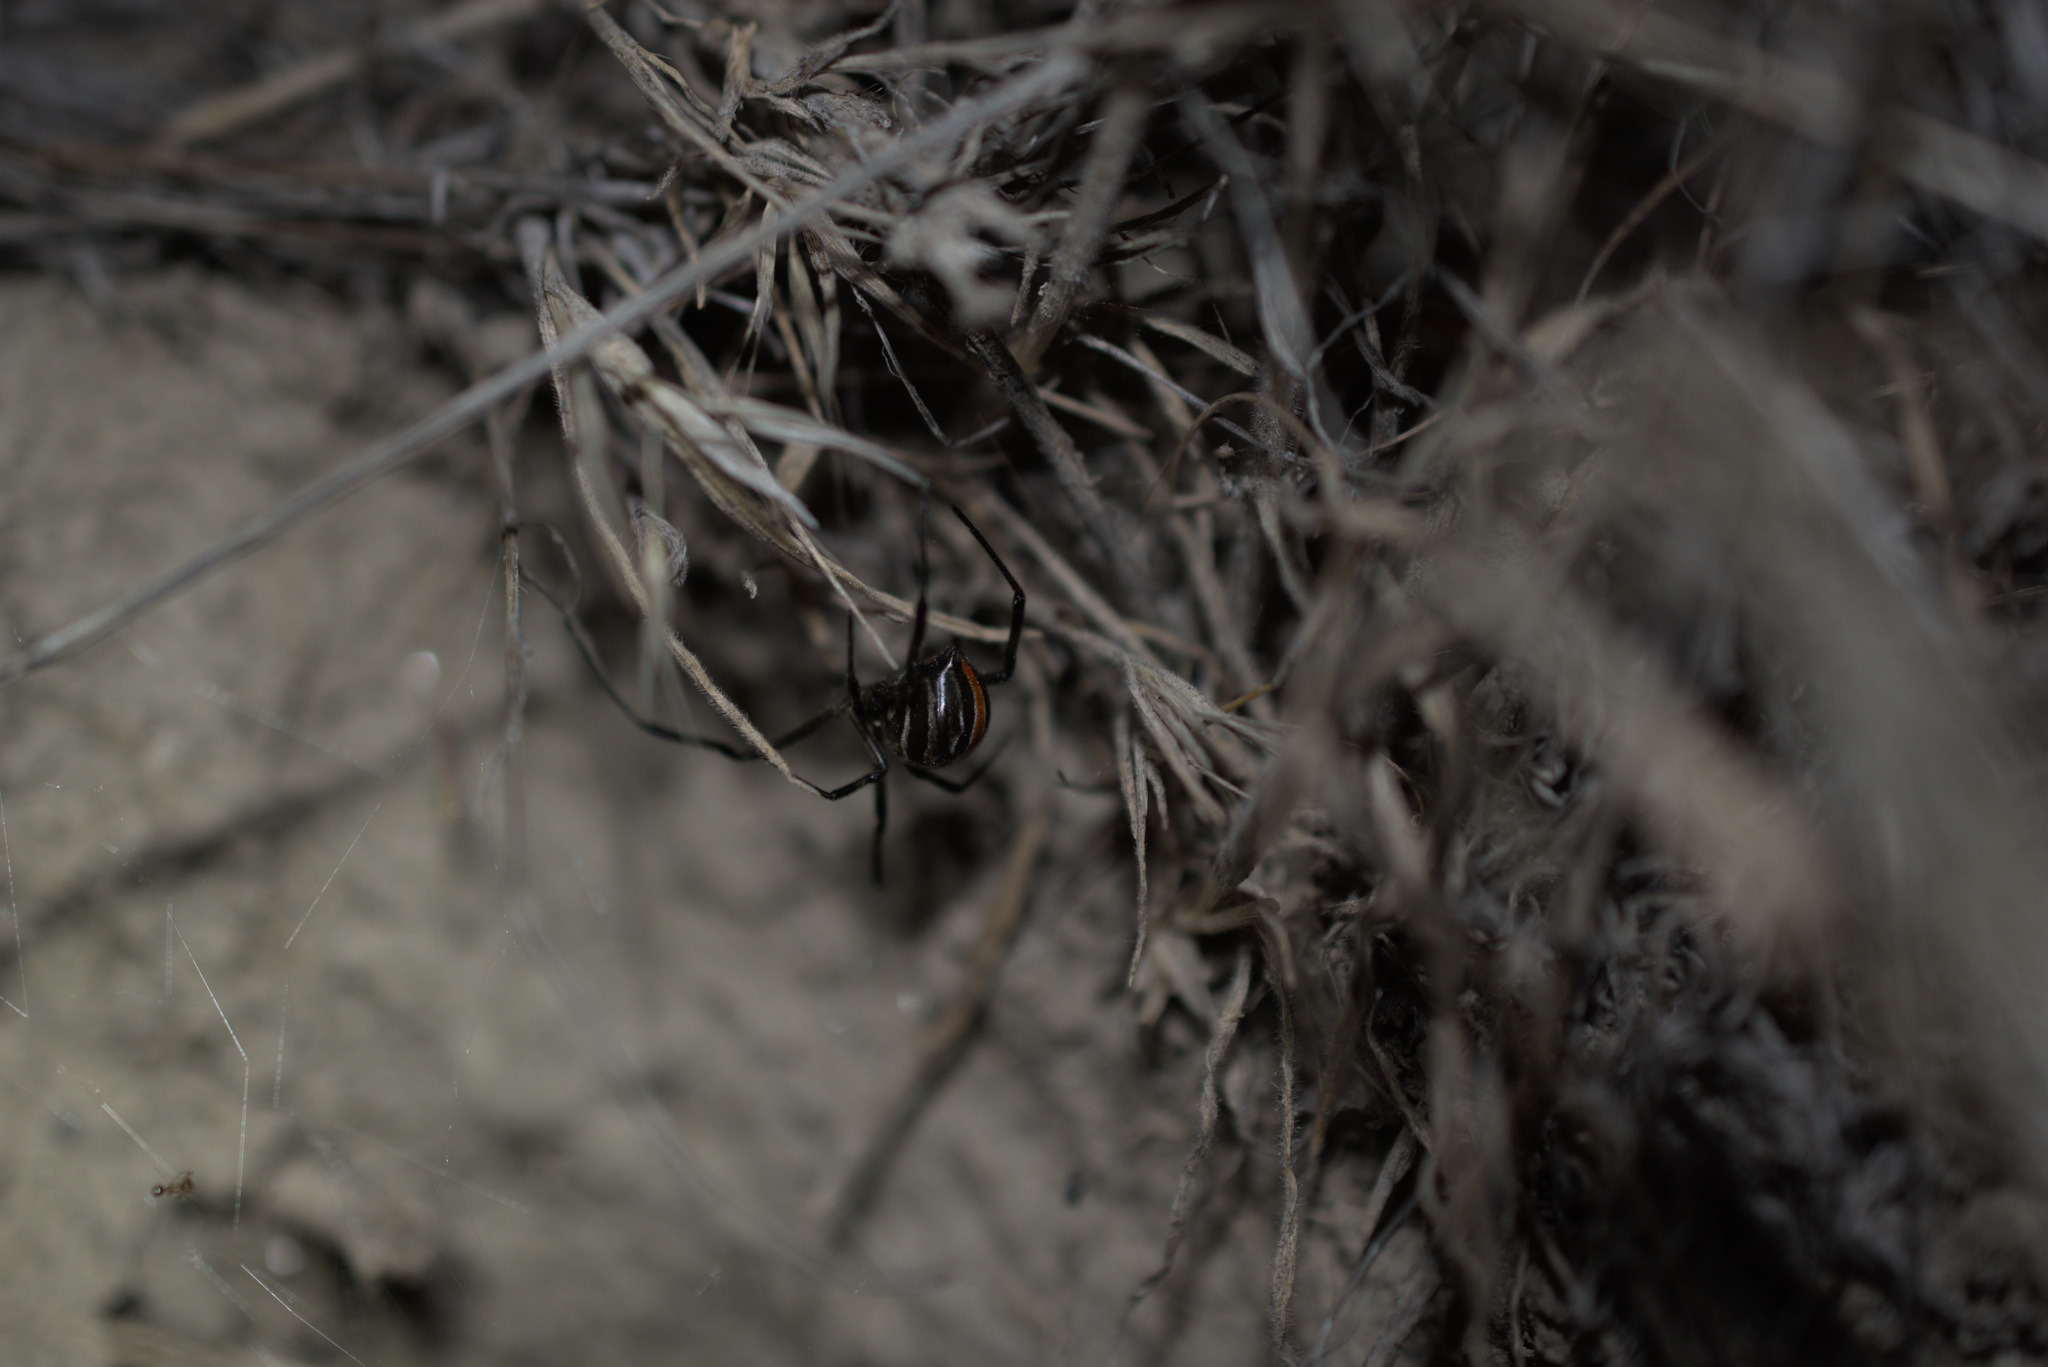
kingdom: Animalia
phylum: Arthropoda
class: Arachnida
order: Araneae
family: Theridiidae
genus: Latrodectus
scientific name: Latrodectus hesperus
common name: Western black widow
